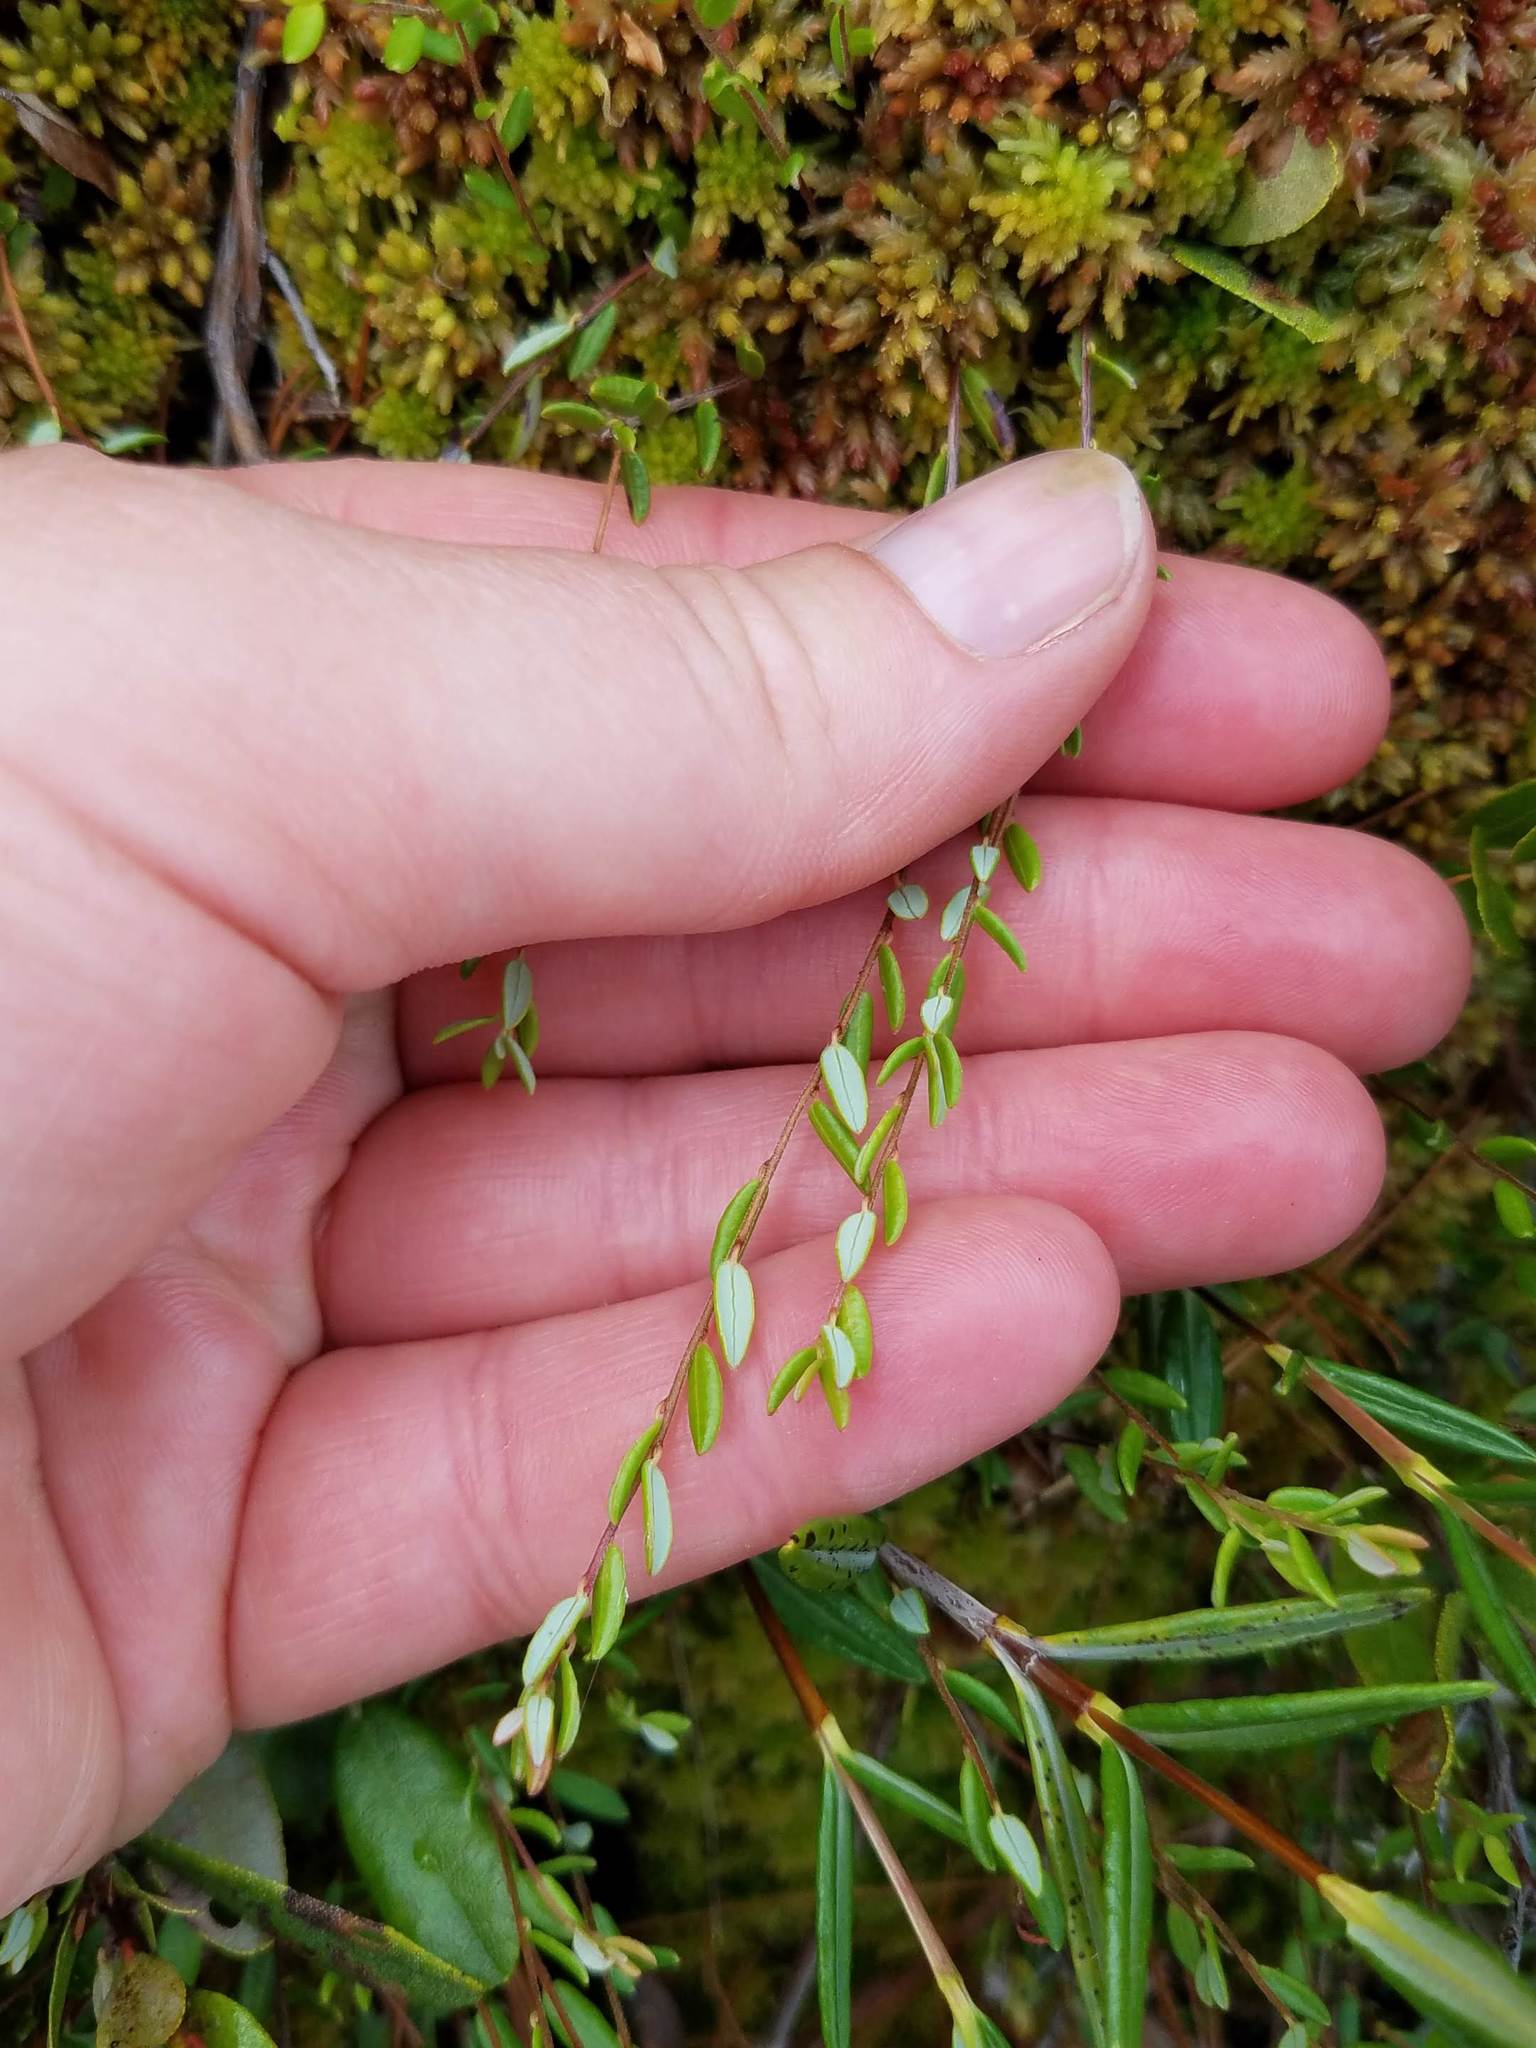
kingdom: Plantae
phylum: Tracheophyta
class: Magnoliopsida
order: Ericales
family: Ericaceae
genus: Vaccinium
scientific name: Vaccinium oxycoccos
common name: Cranberry
